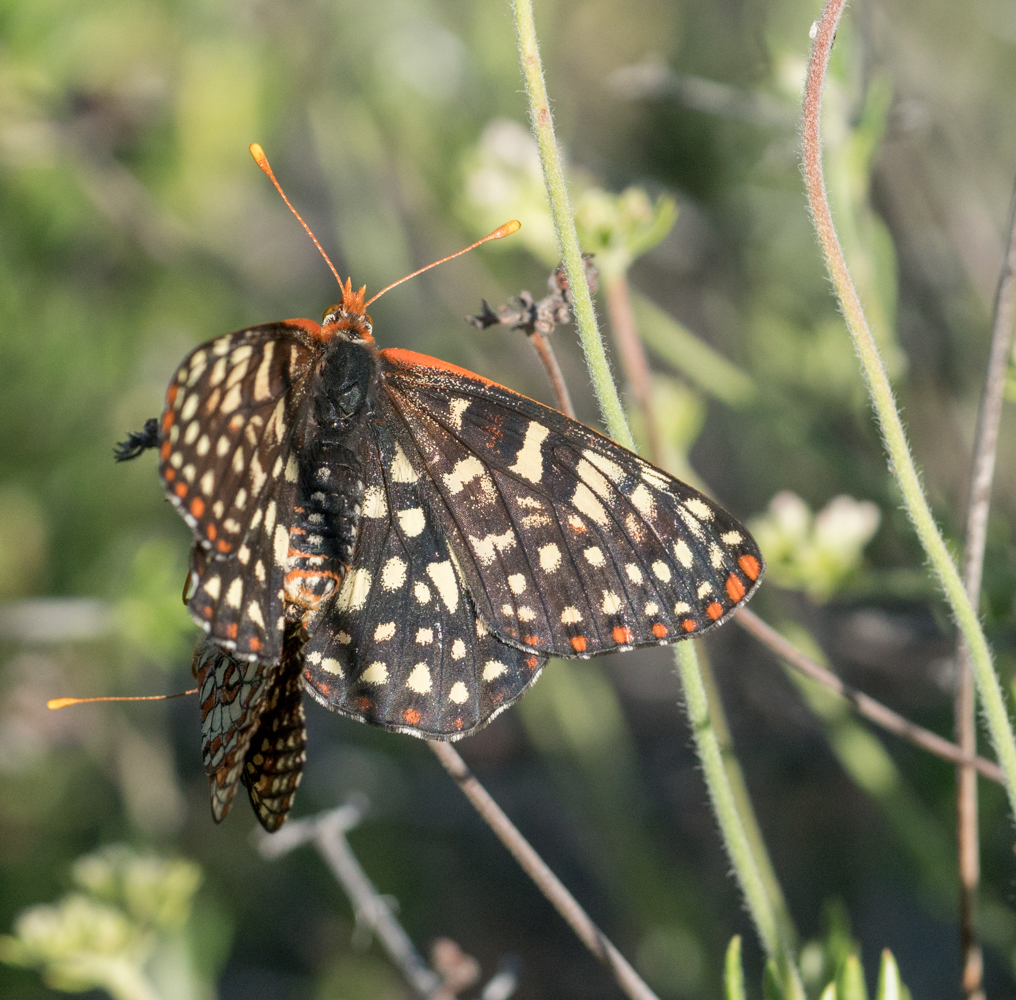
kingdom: Animalia
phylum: Arthropoda
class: Insecta
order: Lepidoptera
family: Nymphalidae
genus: Occidryas
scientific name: Occidryas chalcedona
